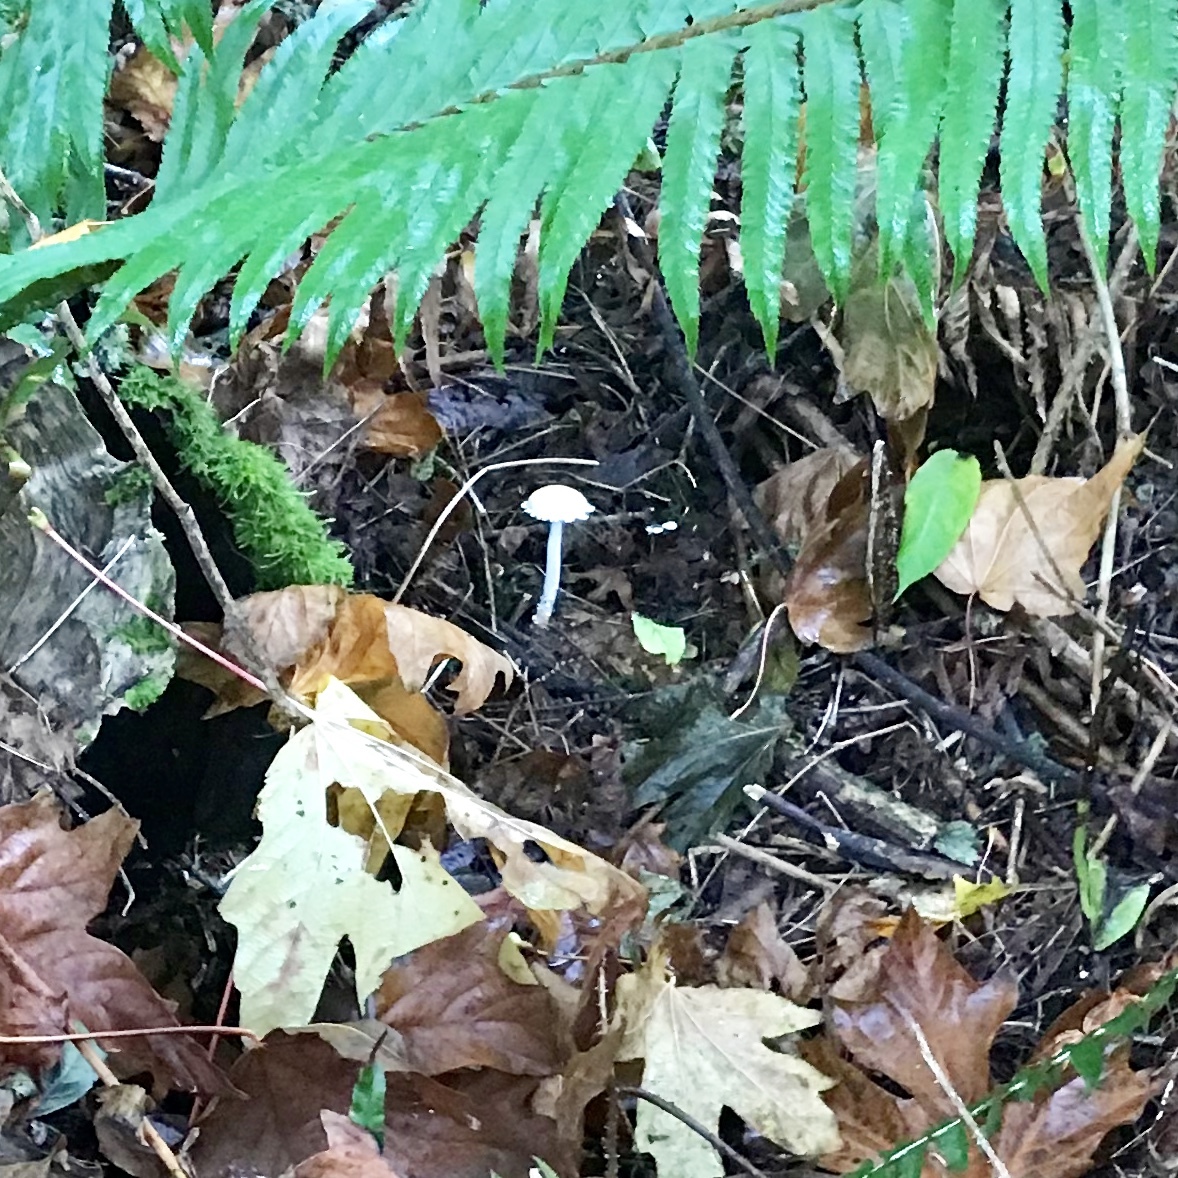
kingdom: Fungi
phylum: Basidiomycota
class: Agaricomycetes
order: Agaricales
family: Strophariaceae
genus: Stropharia
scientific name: Stropharia ambigua
